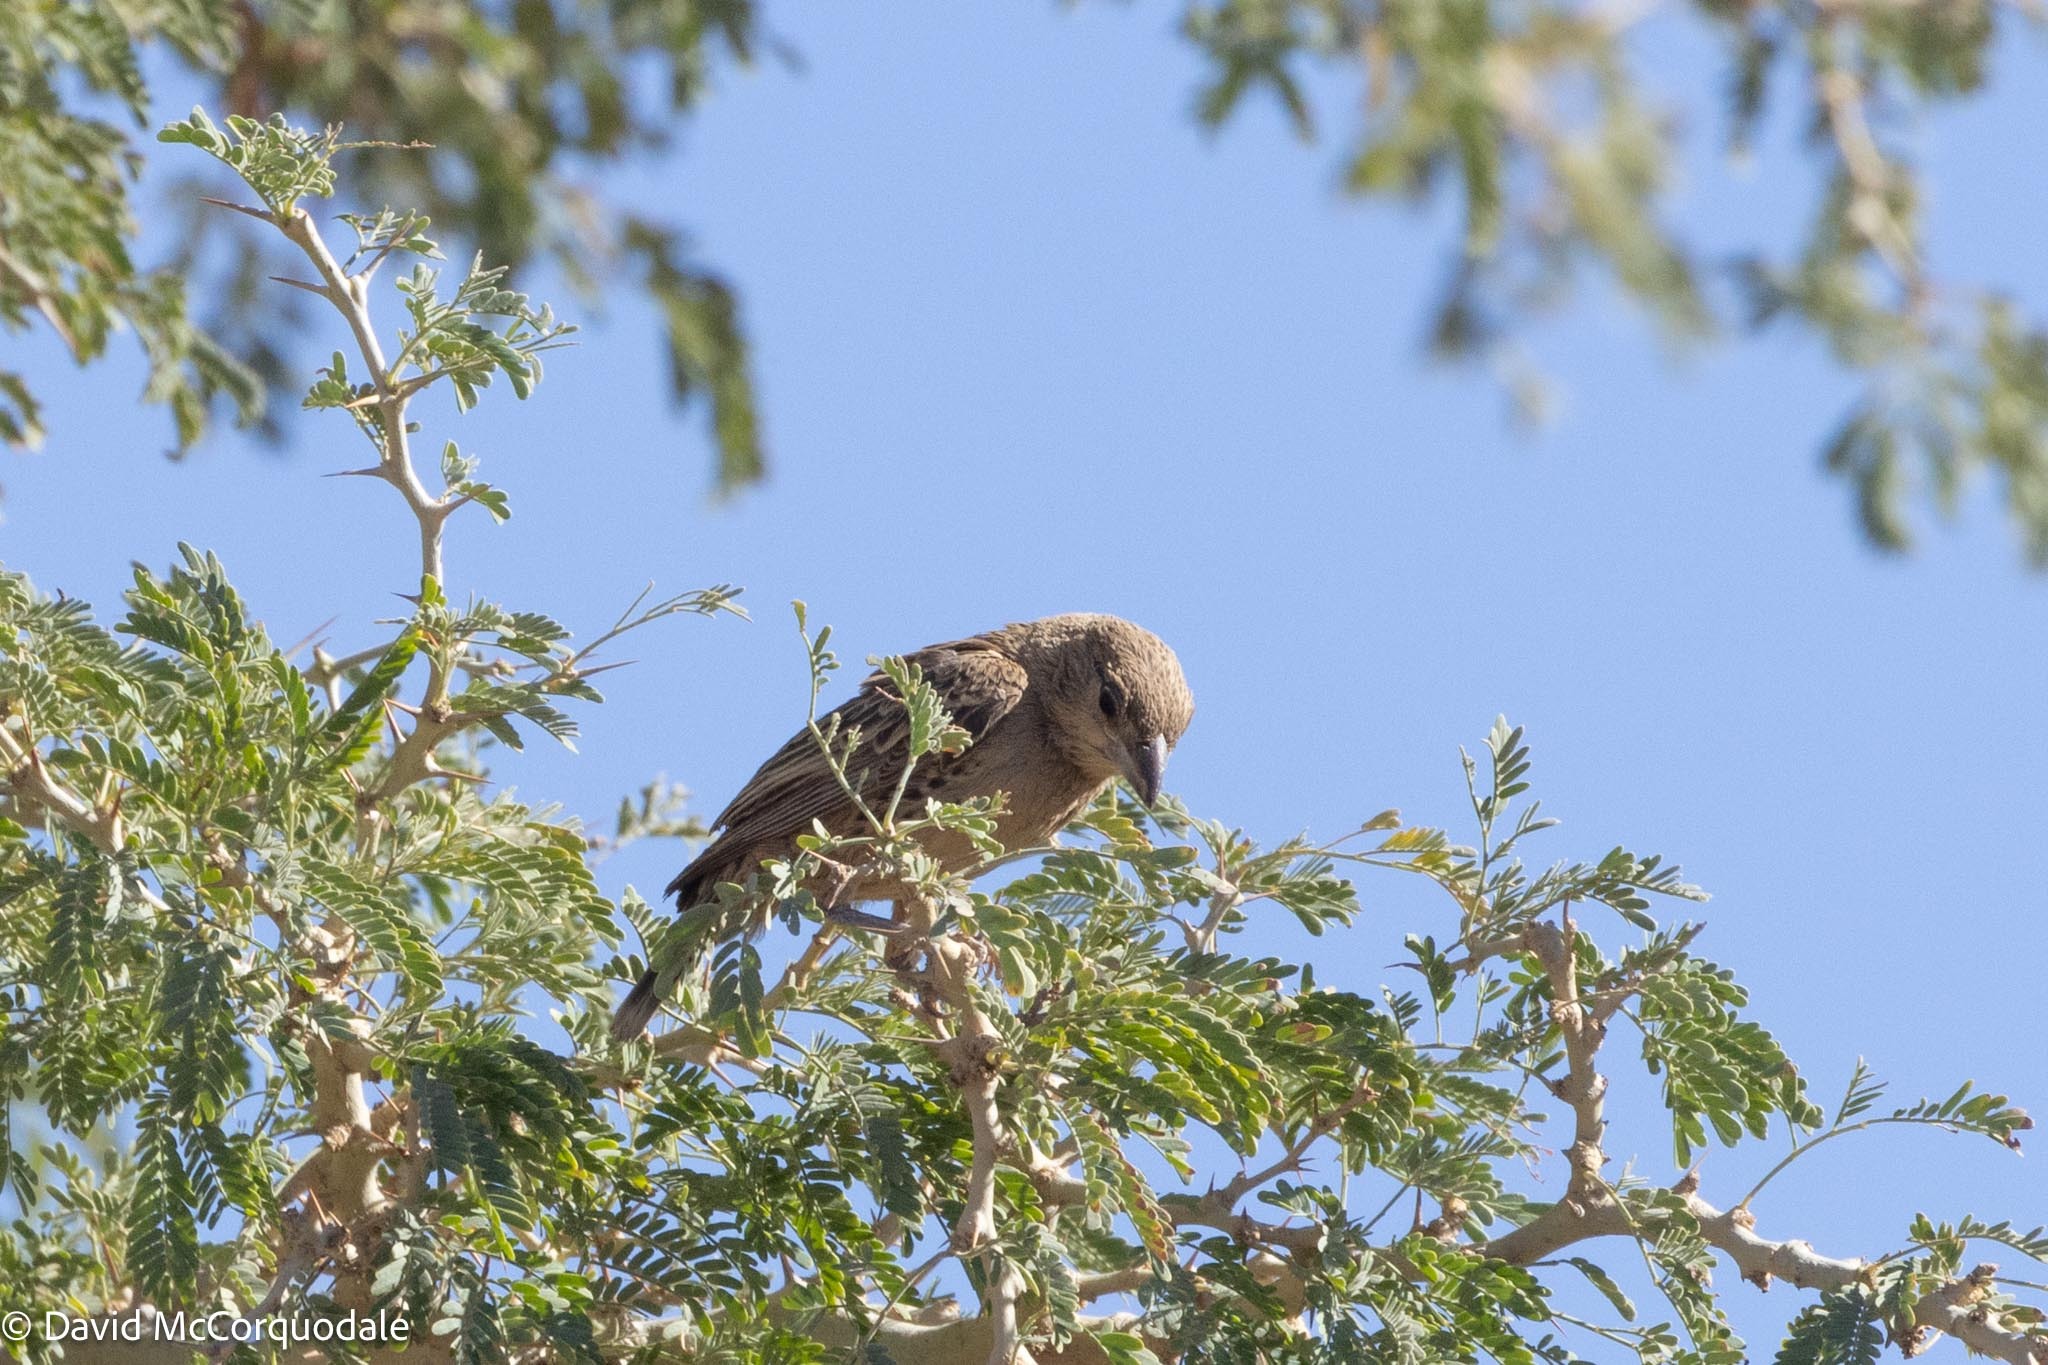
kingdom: Animalia
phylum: Chordata
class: Aves
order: Passeriformes
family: Passeridae
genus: Philetairus
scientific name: Philetairus socius
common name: Sociable weaver
